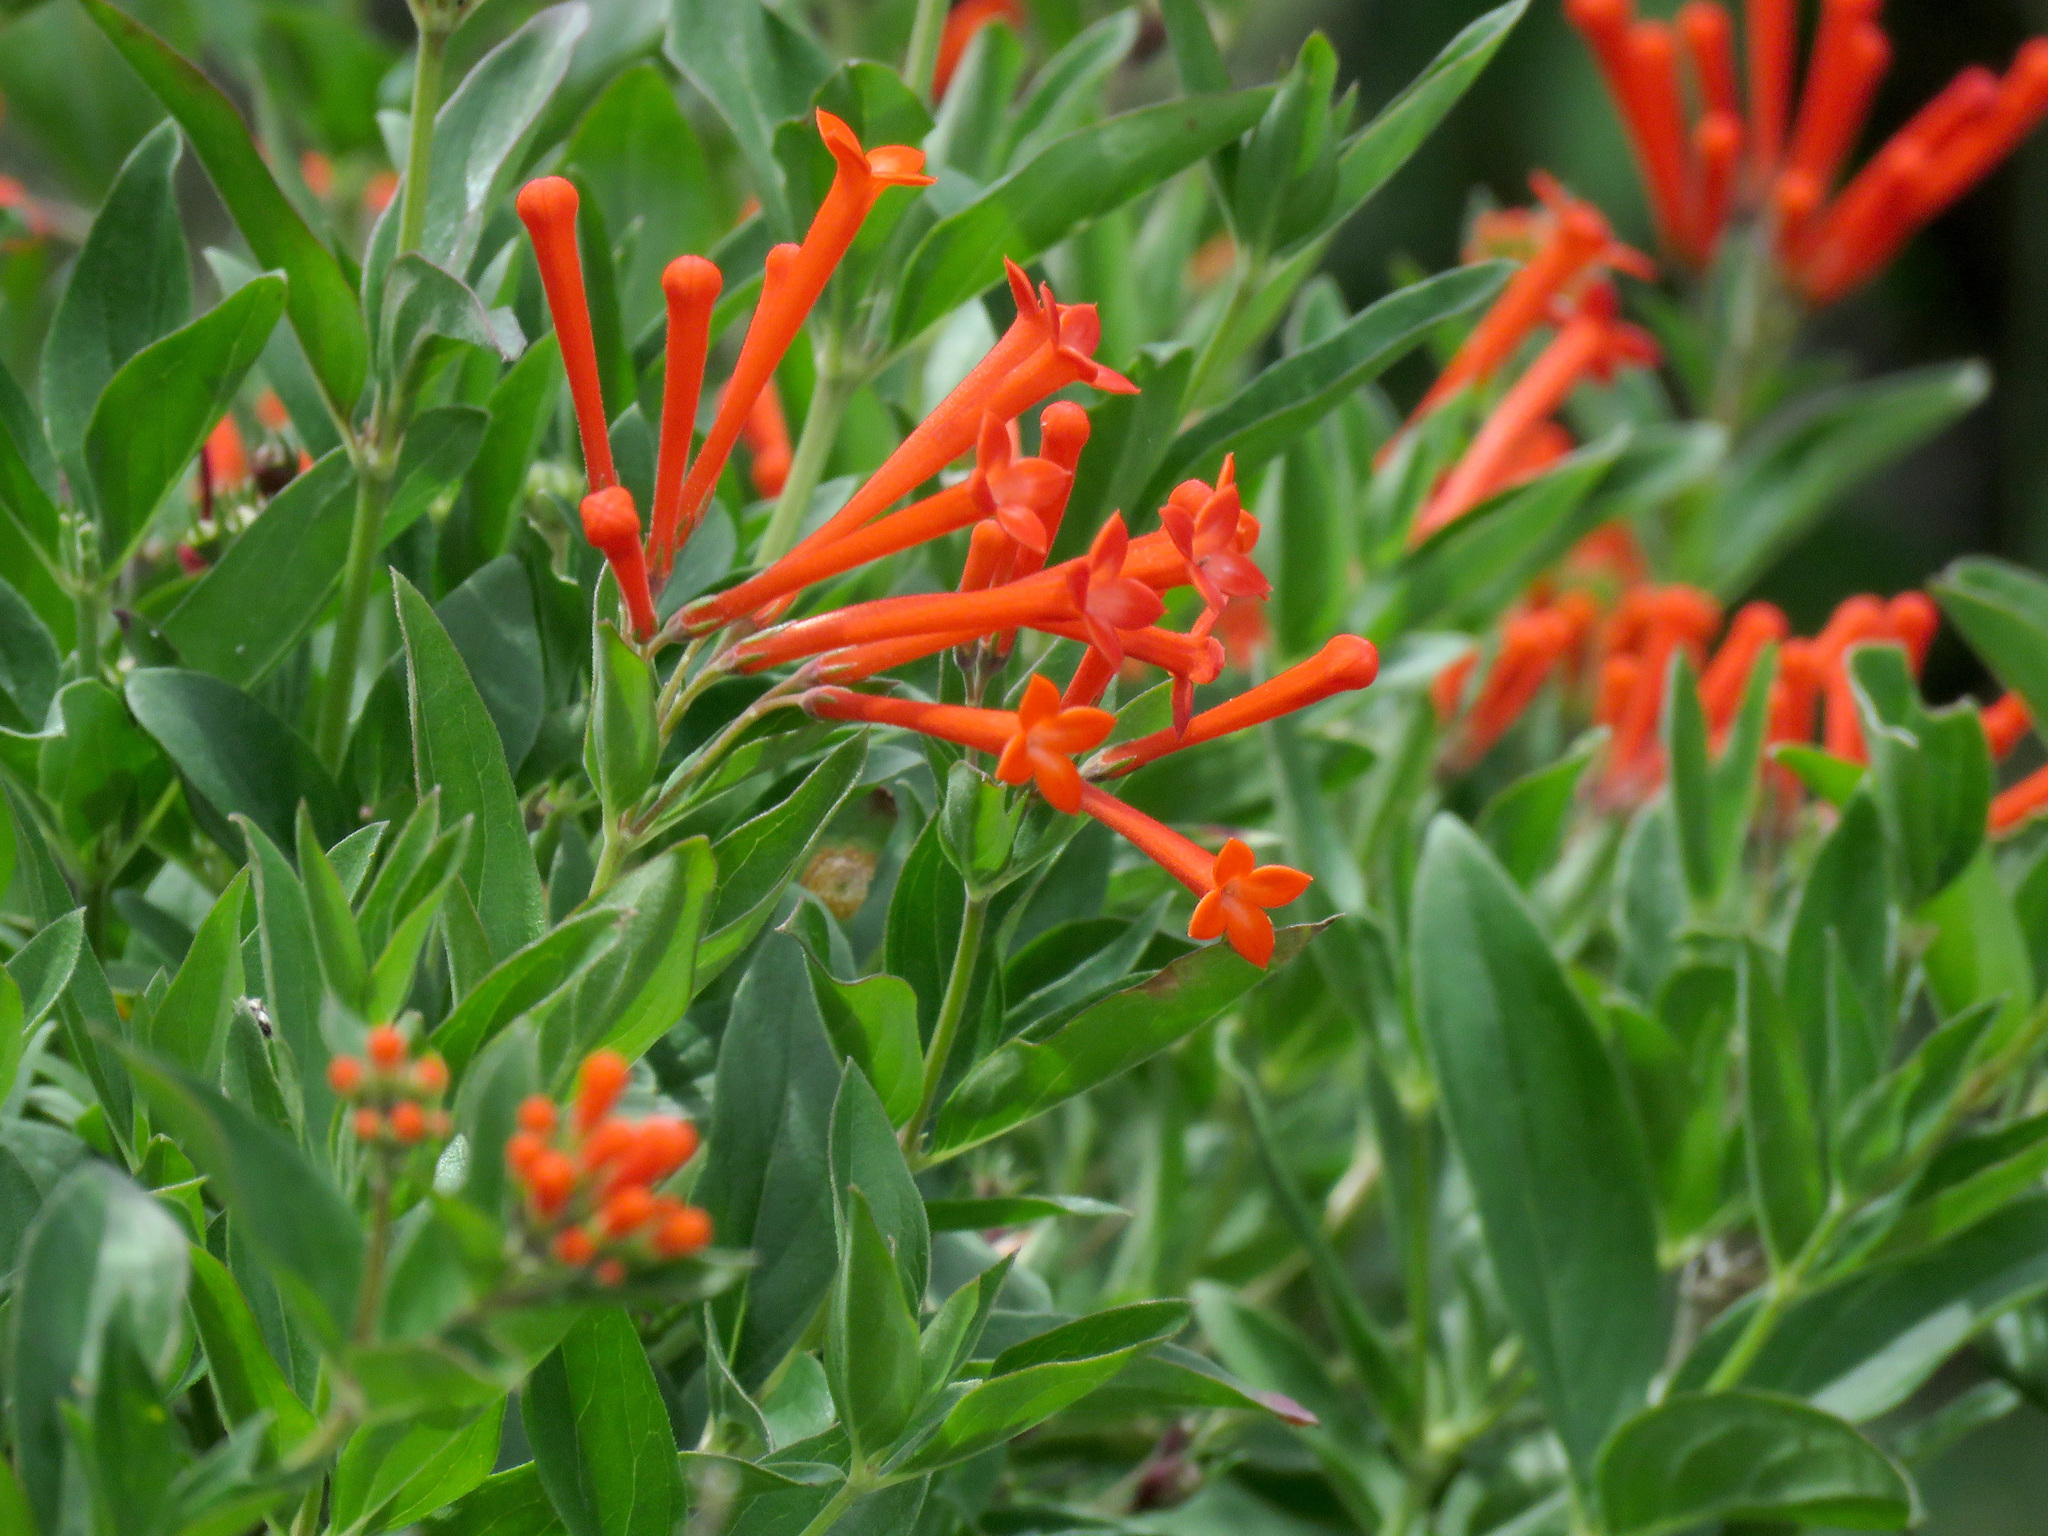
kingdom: Plantae
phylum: Tracheophyta
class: Magnoliopsida
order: Gentianales
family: Rubiaceae
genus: Bouvardia
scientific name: Bouvardia ternifolia
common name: Scarlet bouvardia
